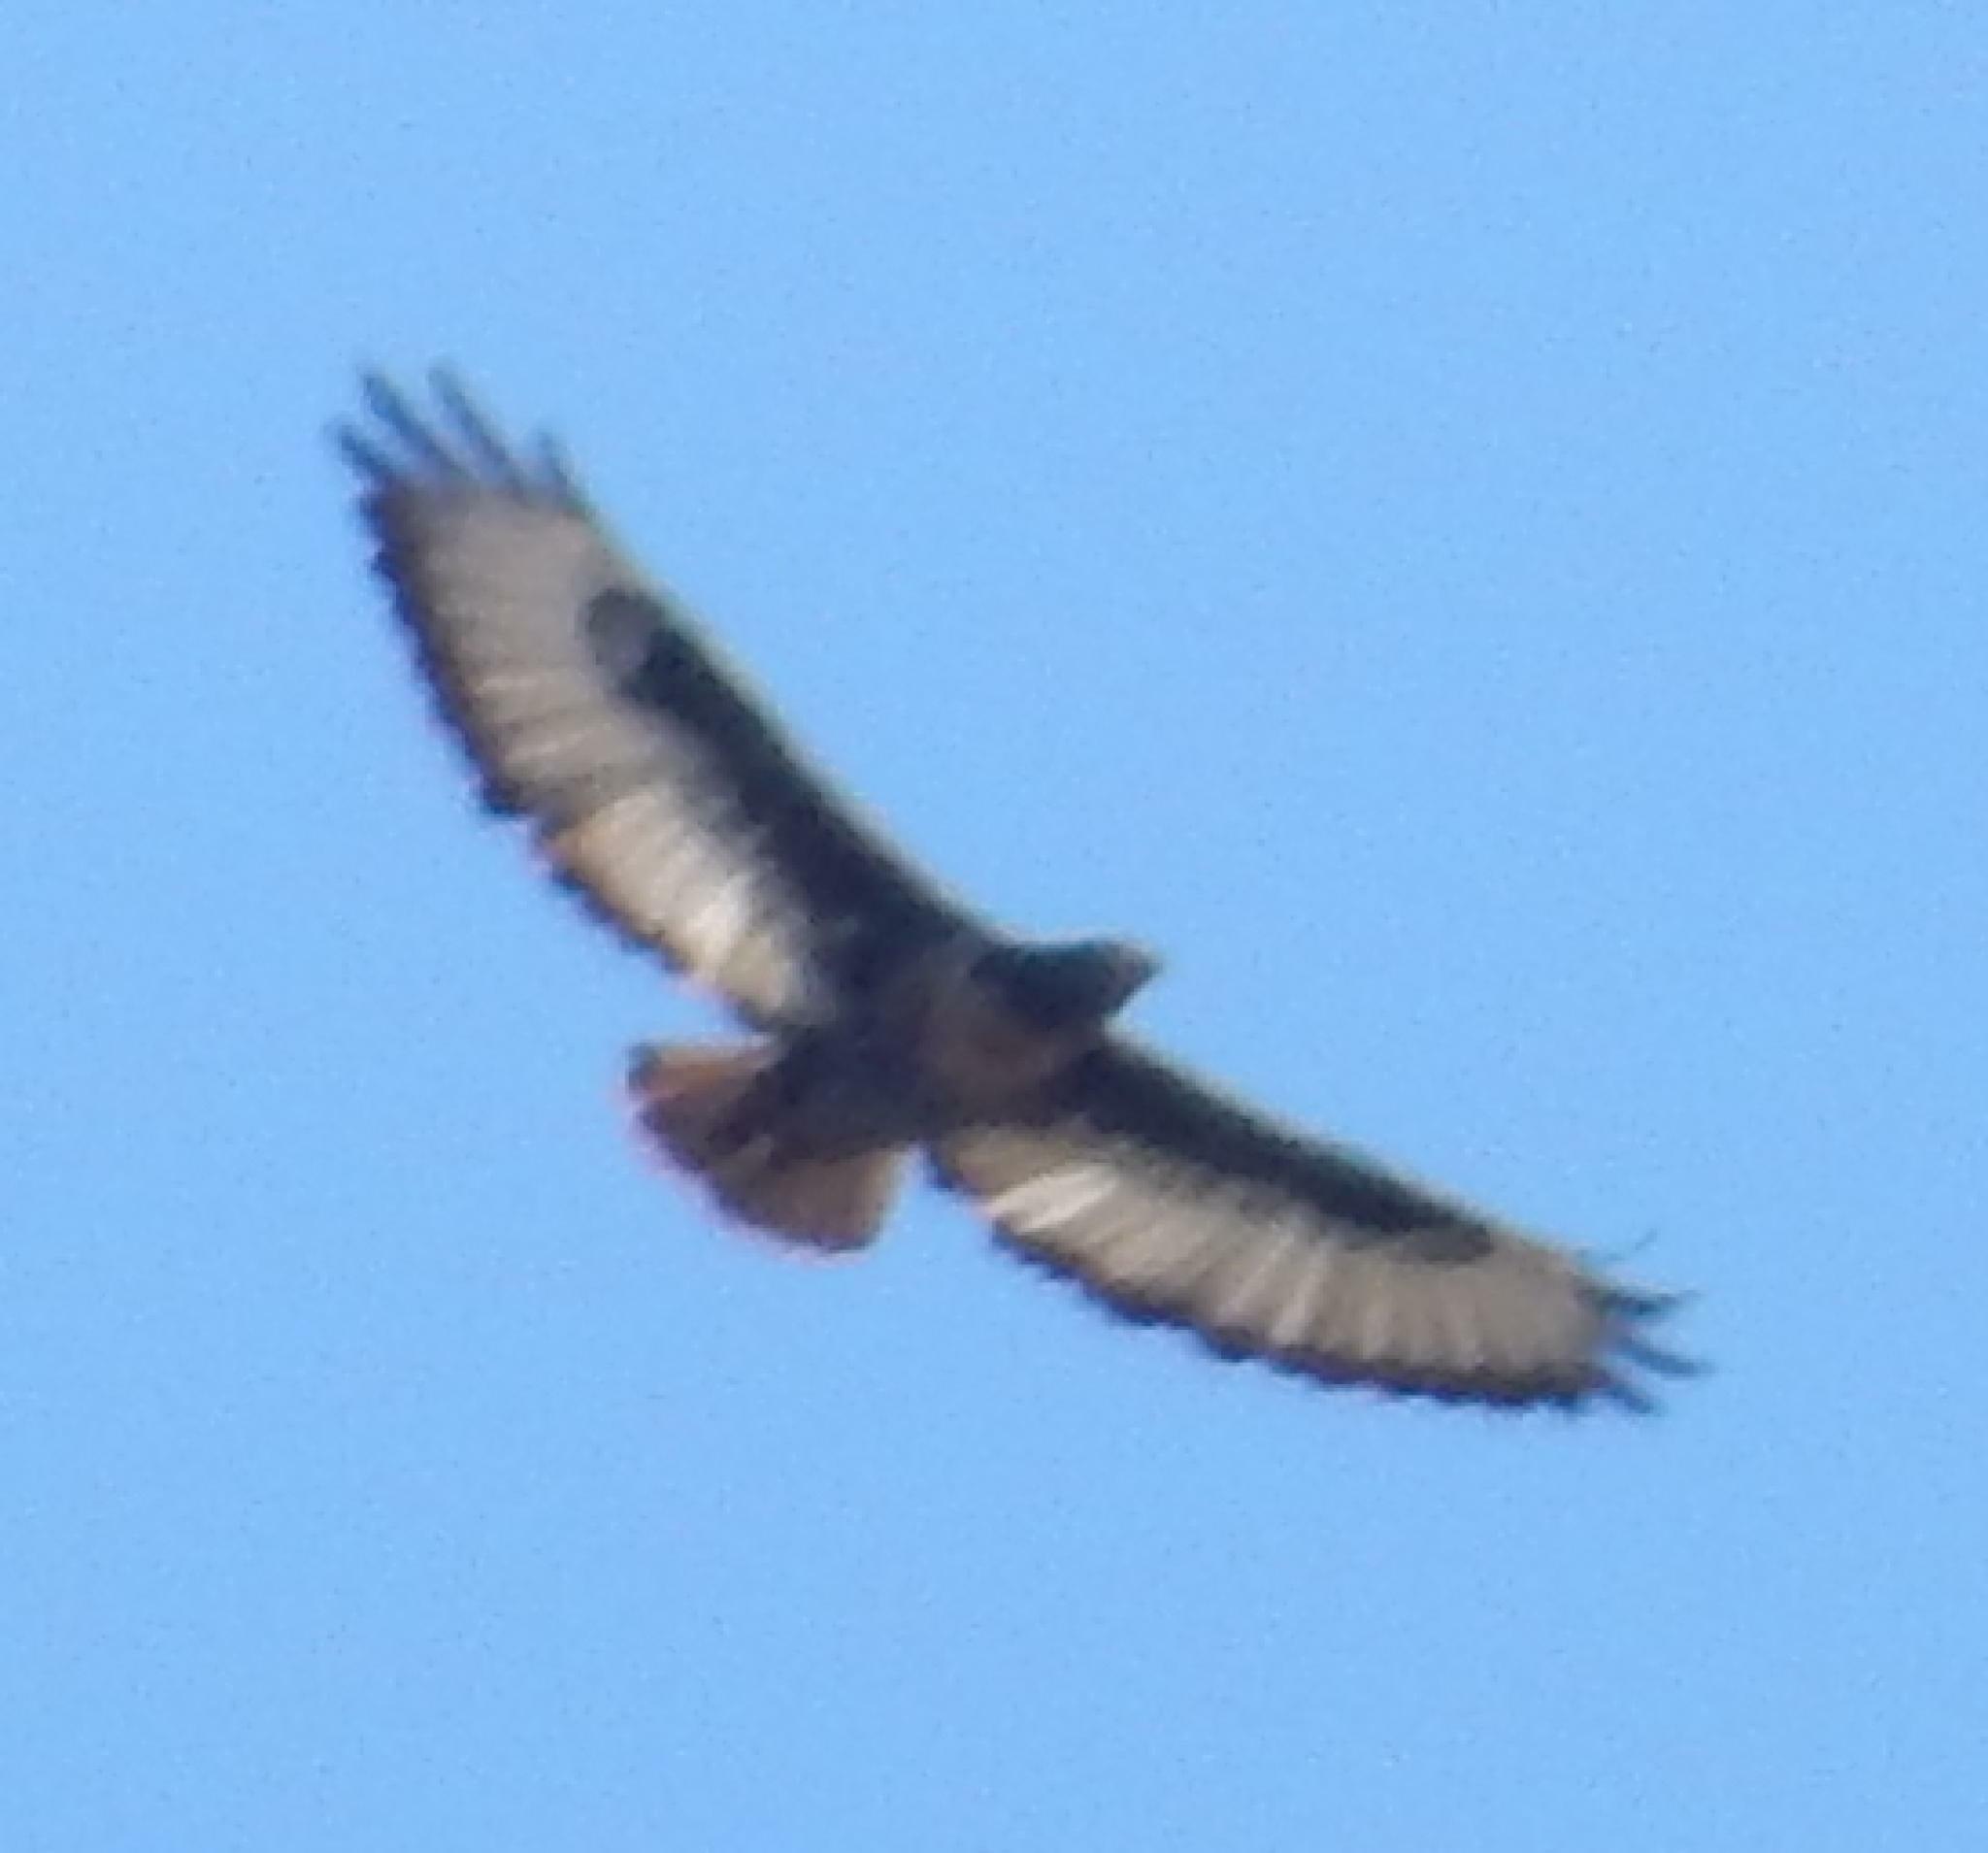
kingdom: Animalia
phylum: Chordata
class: Aves
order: Accipitriformes
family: Accipitridae
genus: Buteo
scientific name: Buteo rufofuscus
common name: Jackal buzzard
